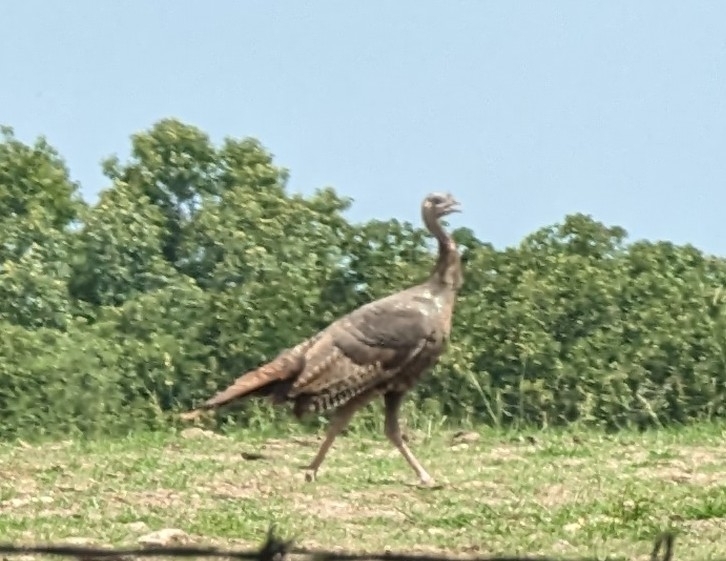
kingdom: Animalia
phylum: Chordata
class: Aves
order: Galliformes
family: Phasianidae
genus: Meleagris
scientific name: Meleagris gallopavo
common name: Wild turkey
